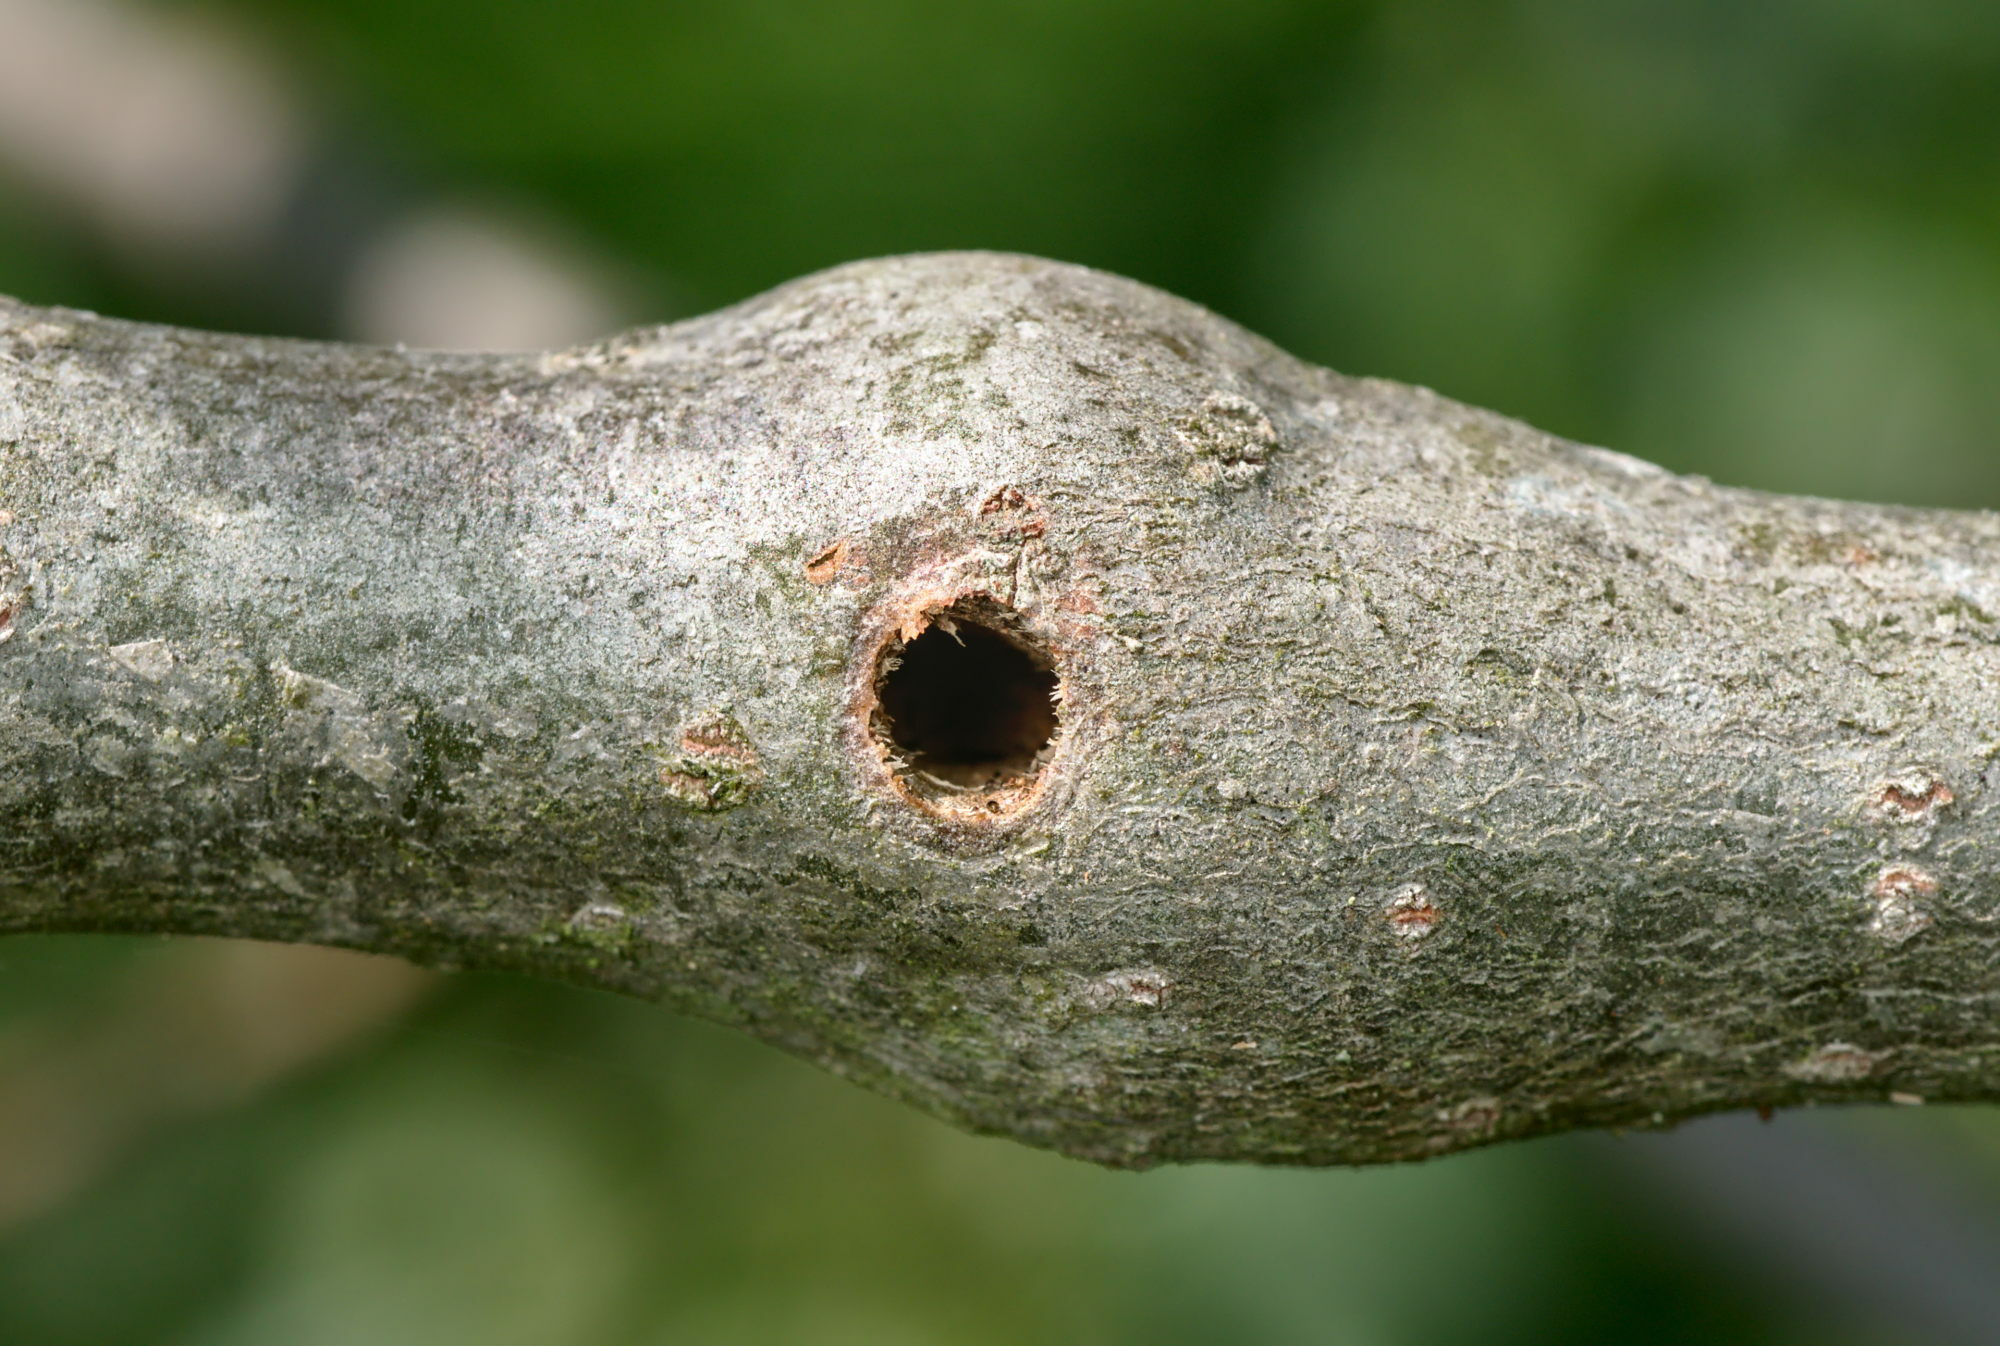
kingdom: Animalia
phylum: Arthropoda
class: Insecta
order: Coleoptera
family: Cerambycidae
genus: Saperda
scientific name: Saperda populnea
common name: Small poplar borer
